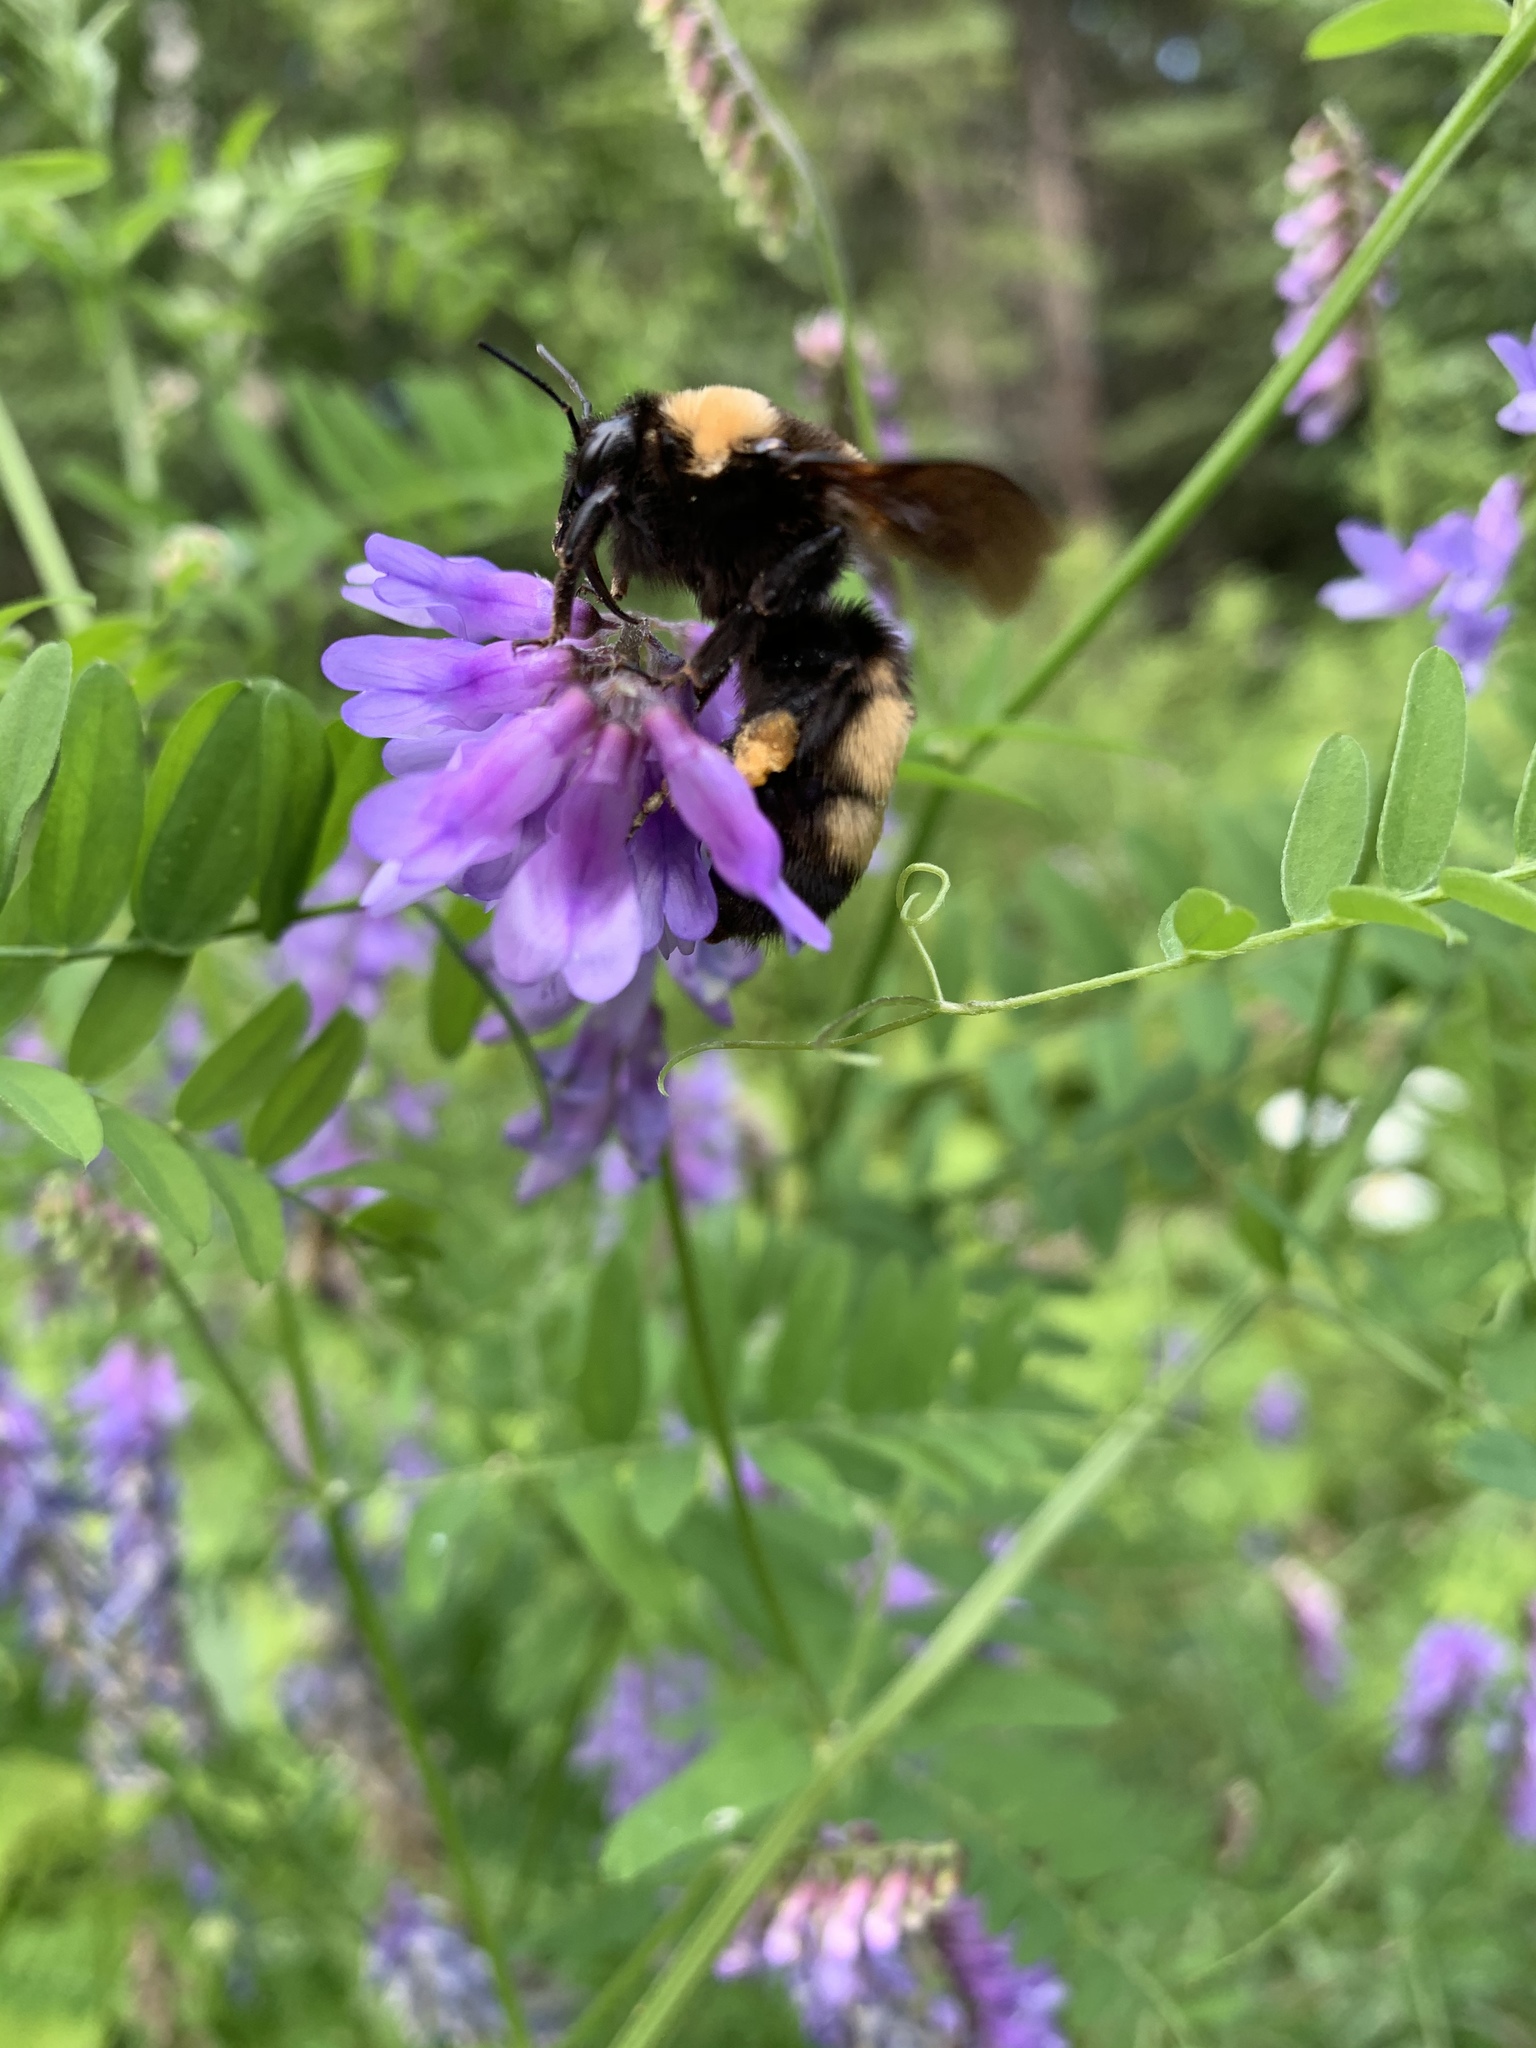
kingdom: Animalia
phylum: Arthropoda
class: Insecta
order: Hymenoptera
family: Apidae
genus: Bombus
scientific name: Bombus nevadensis
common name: Nevada bumble bee
